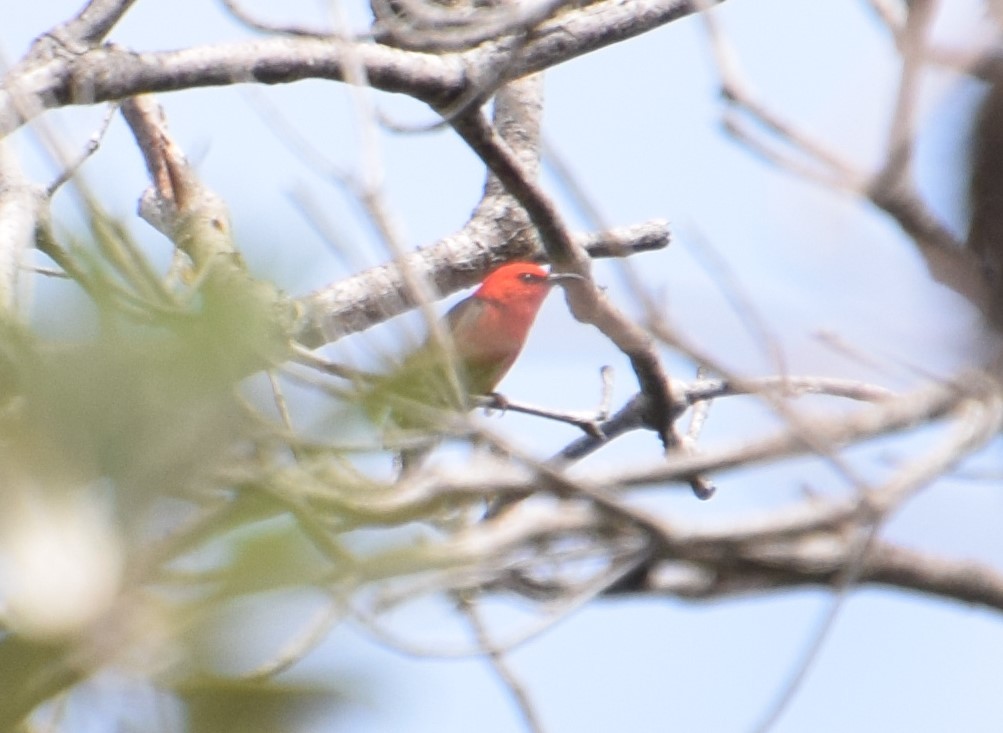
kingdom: Animalia
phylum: Chordata
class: Aves
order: Passeriformes
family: Meliphagidae
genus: Myzomela
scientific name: Myzomela sanguinolenta
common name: Scarlet myzomela
